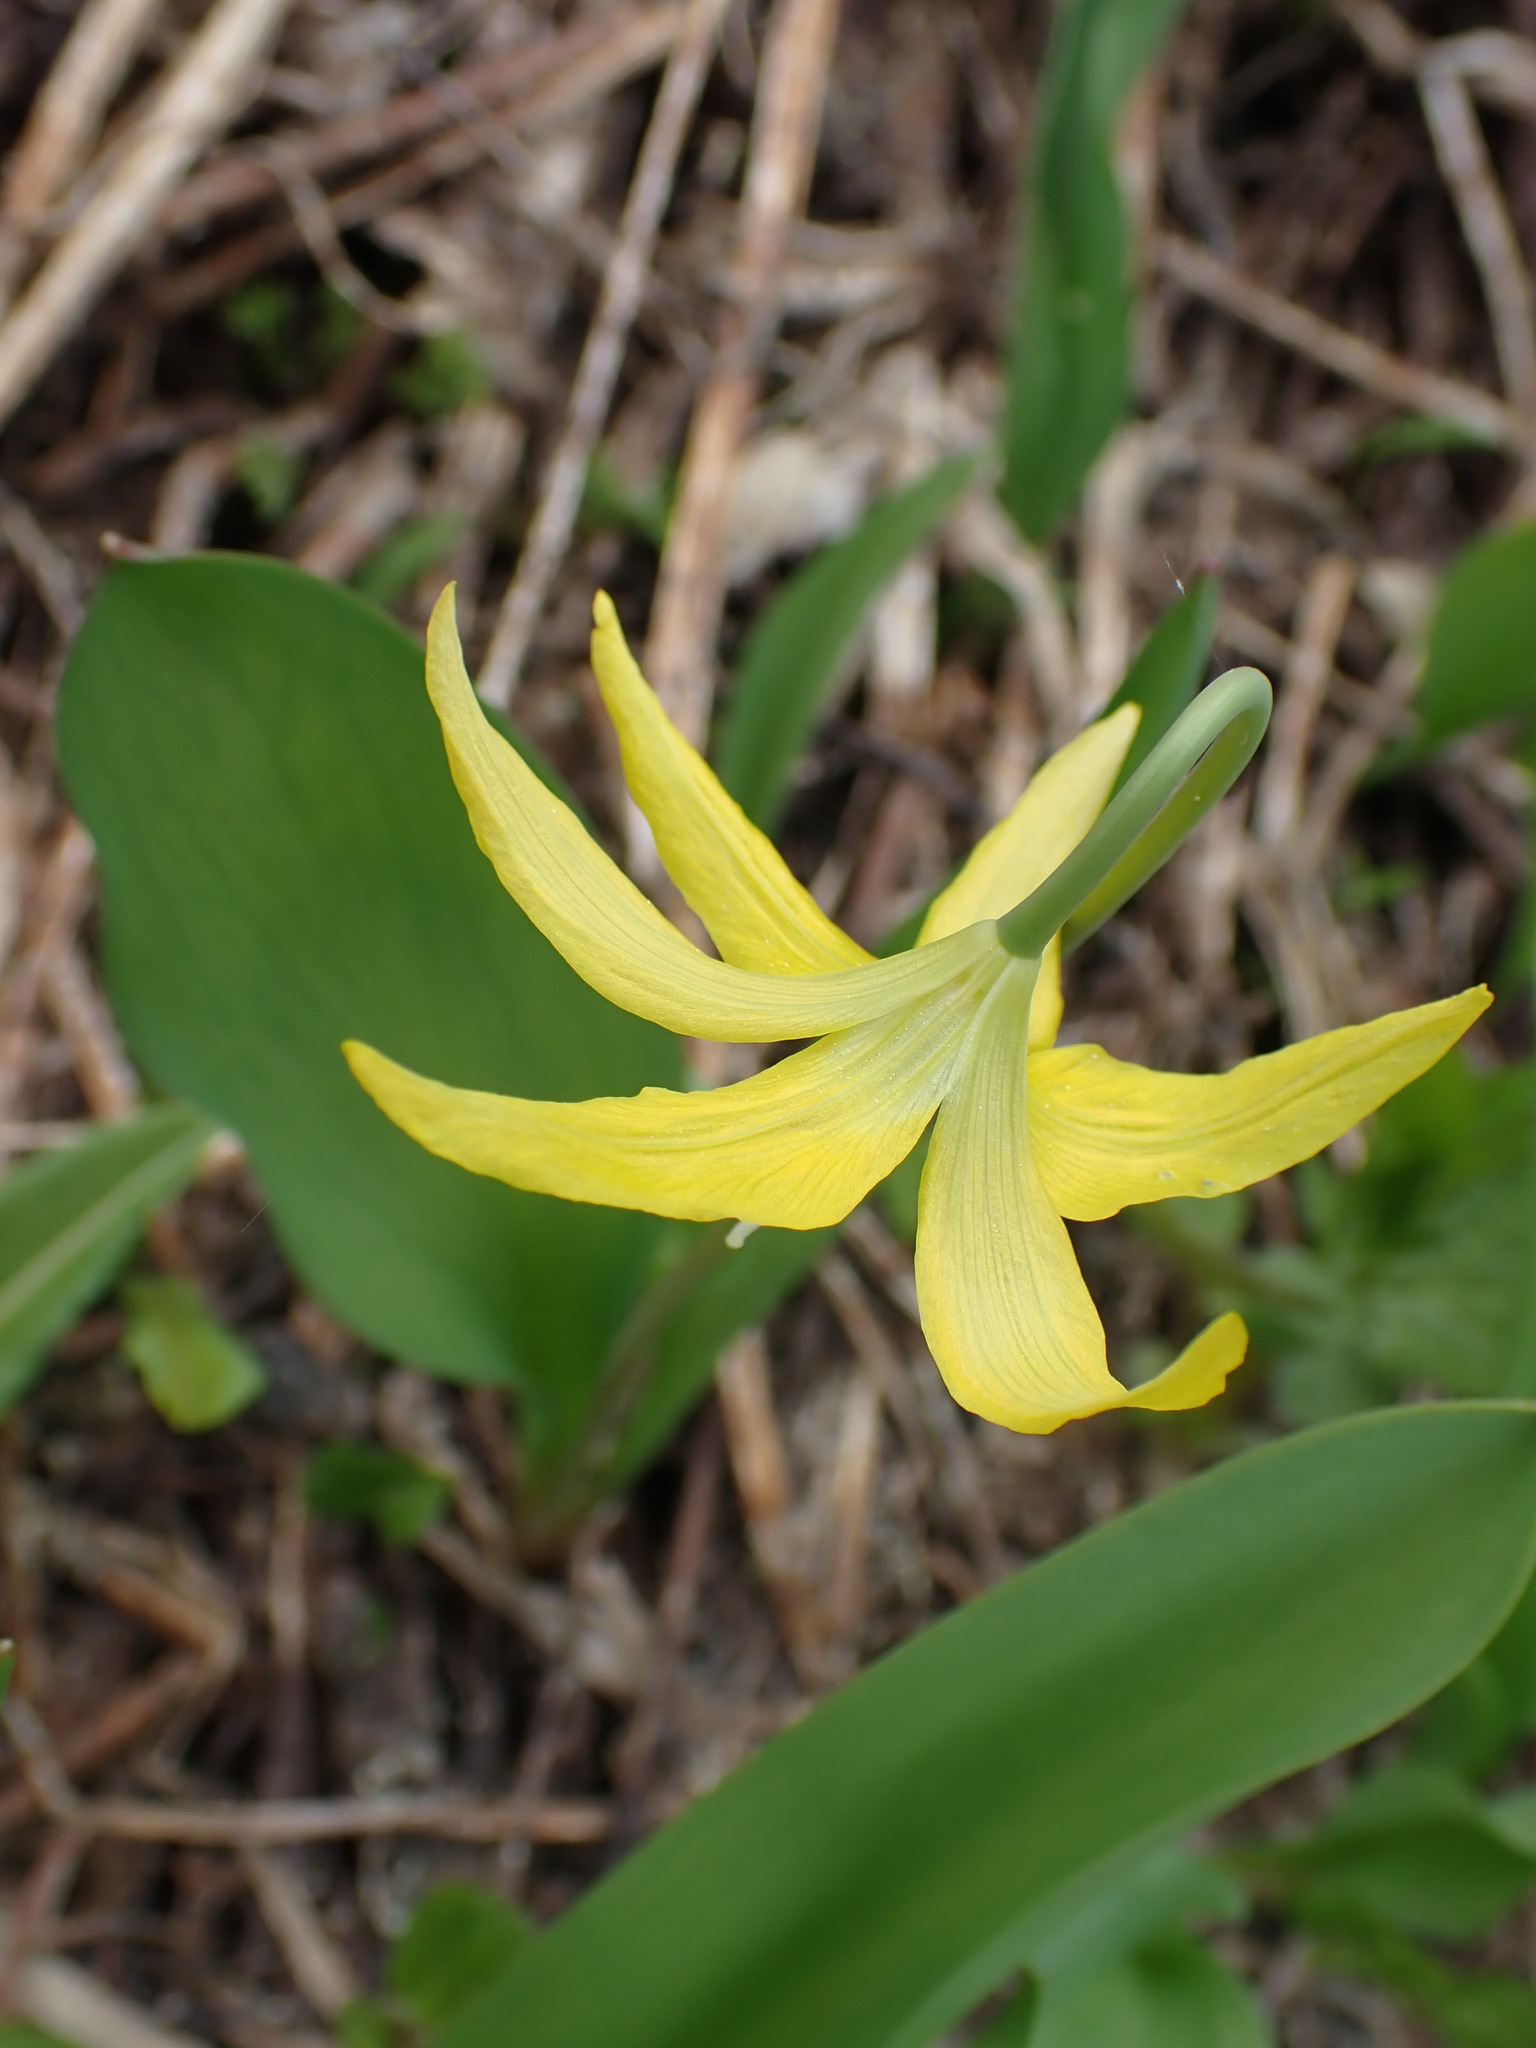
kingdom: Plantae
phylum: Tracheophyta
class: Liliopsida
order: Liliales
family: Liliaceae
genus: Erythronium
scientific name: Erythronium grandiflorum
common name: Avalanche-lily
